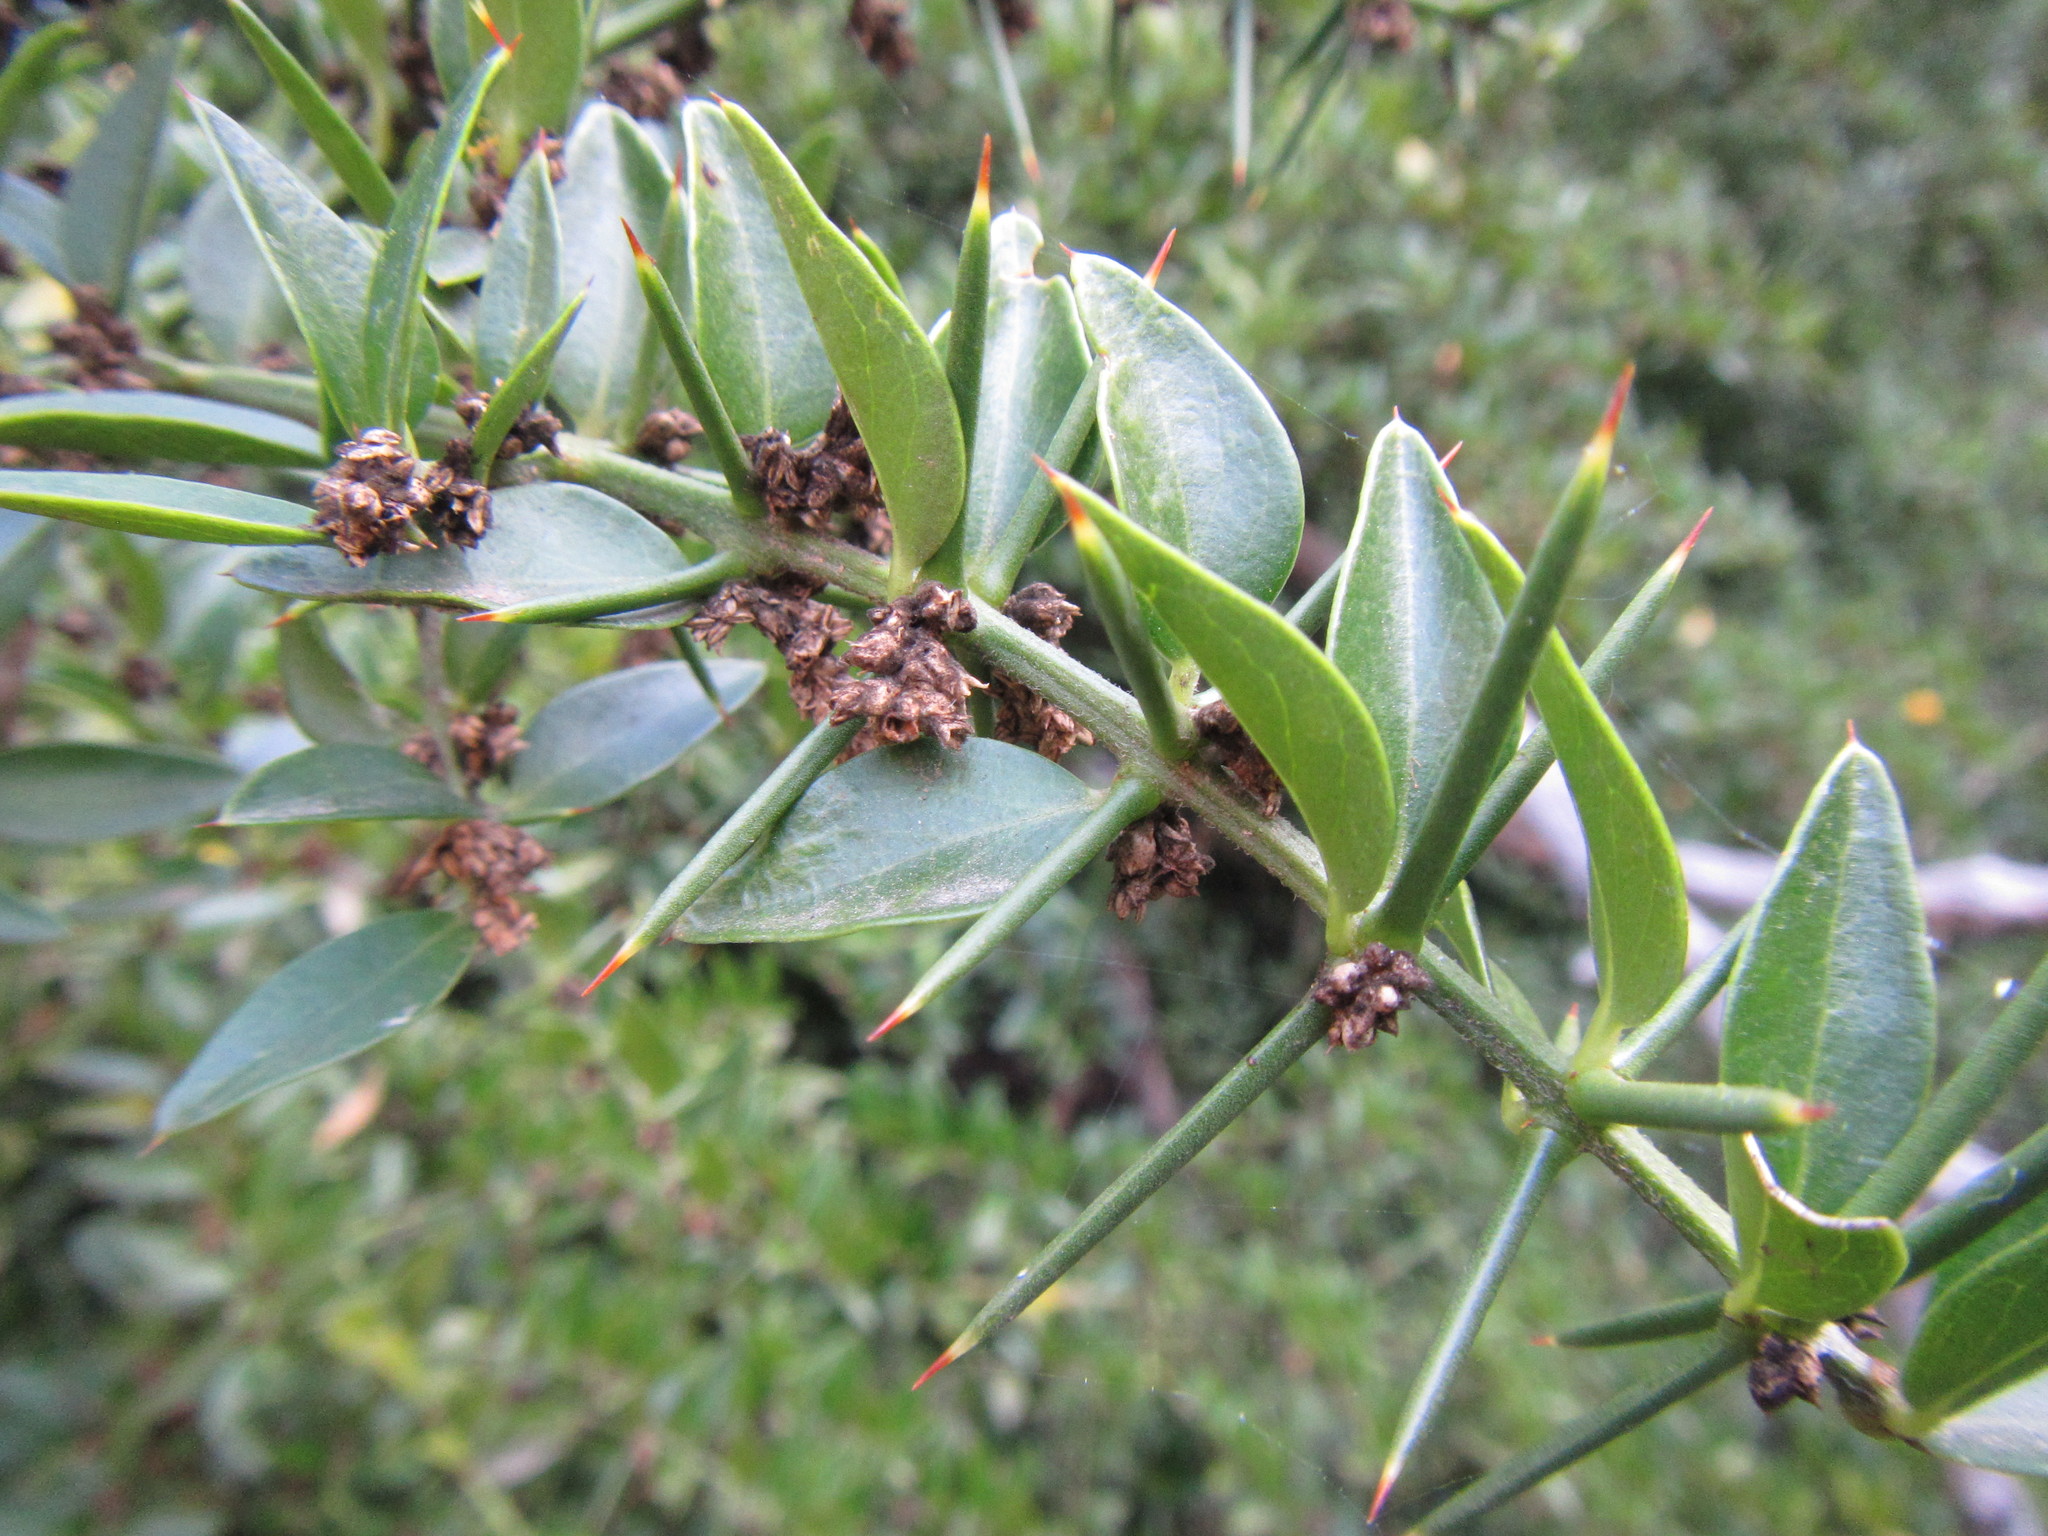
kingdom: Plantae
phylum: Tracheophyta
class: Magnoliopsida
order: Brassicales
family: Salvadoraceae
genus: Azima
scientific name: Azima tetracantha
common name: Needle bush
